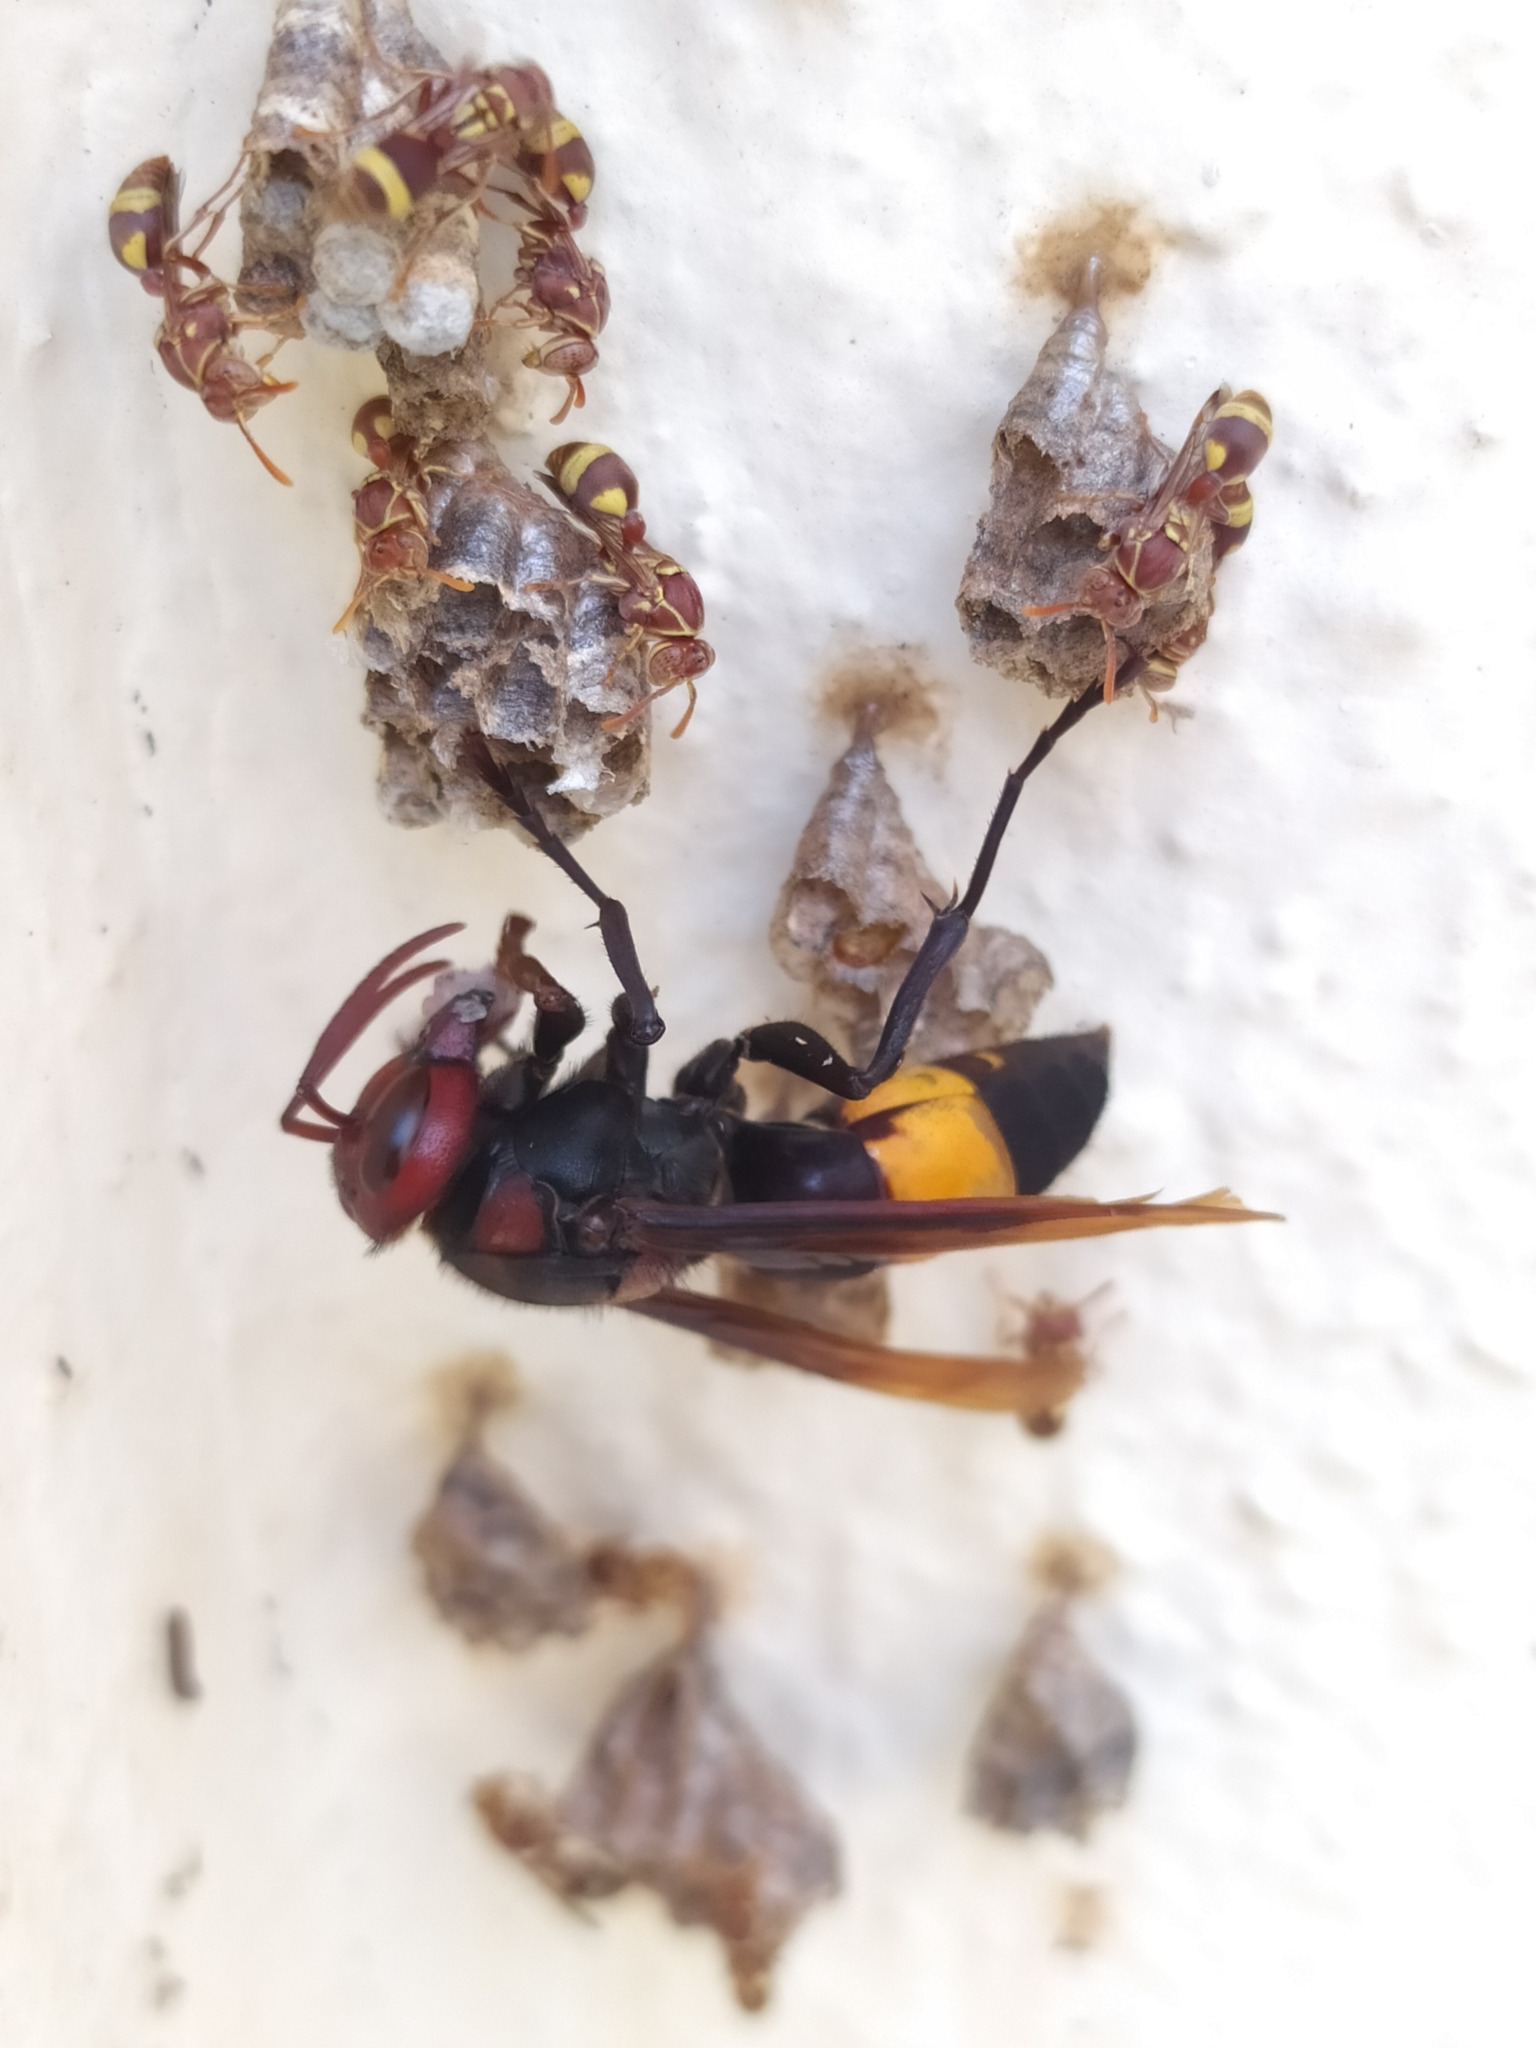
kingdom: Animalia
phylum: Arthropoda
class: Insecta
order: Hymenoptera
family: Vespidae
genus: Vespa
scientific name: Vespa tropica
